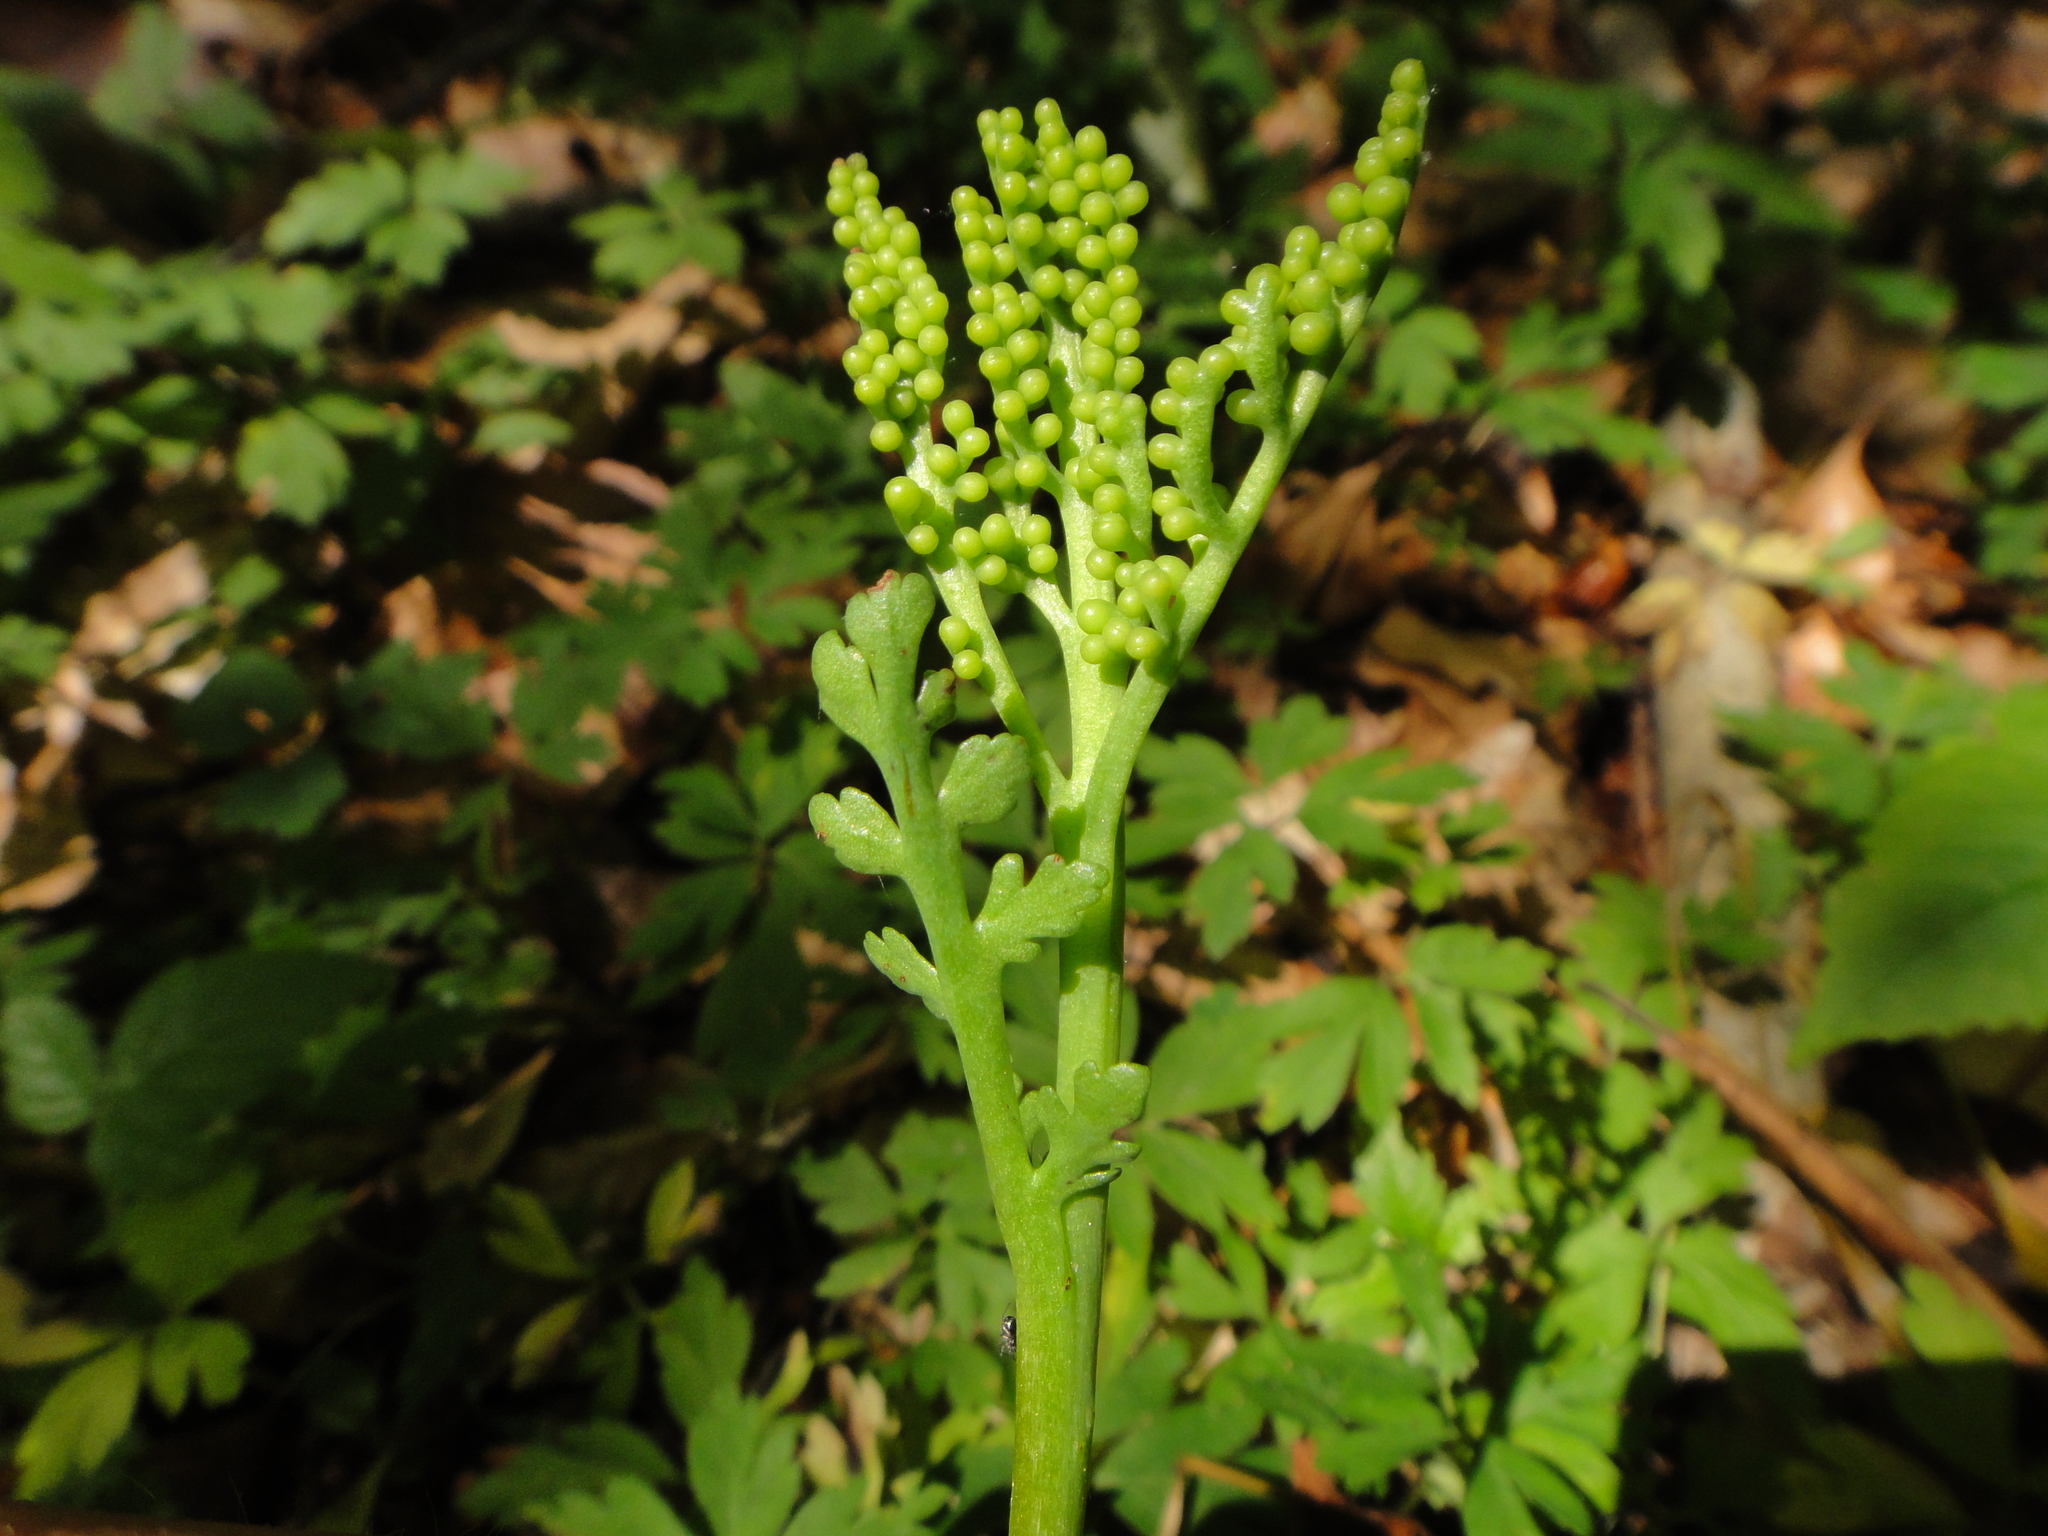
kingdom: Plantae
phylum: Tracheophyta
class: Polypodiopsida
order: Ophioglossales
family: Ophioglossaceae
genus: Botrychium
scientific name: Botrychium matricariifolium
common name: Branched moonwort
